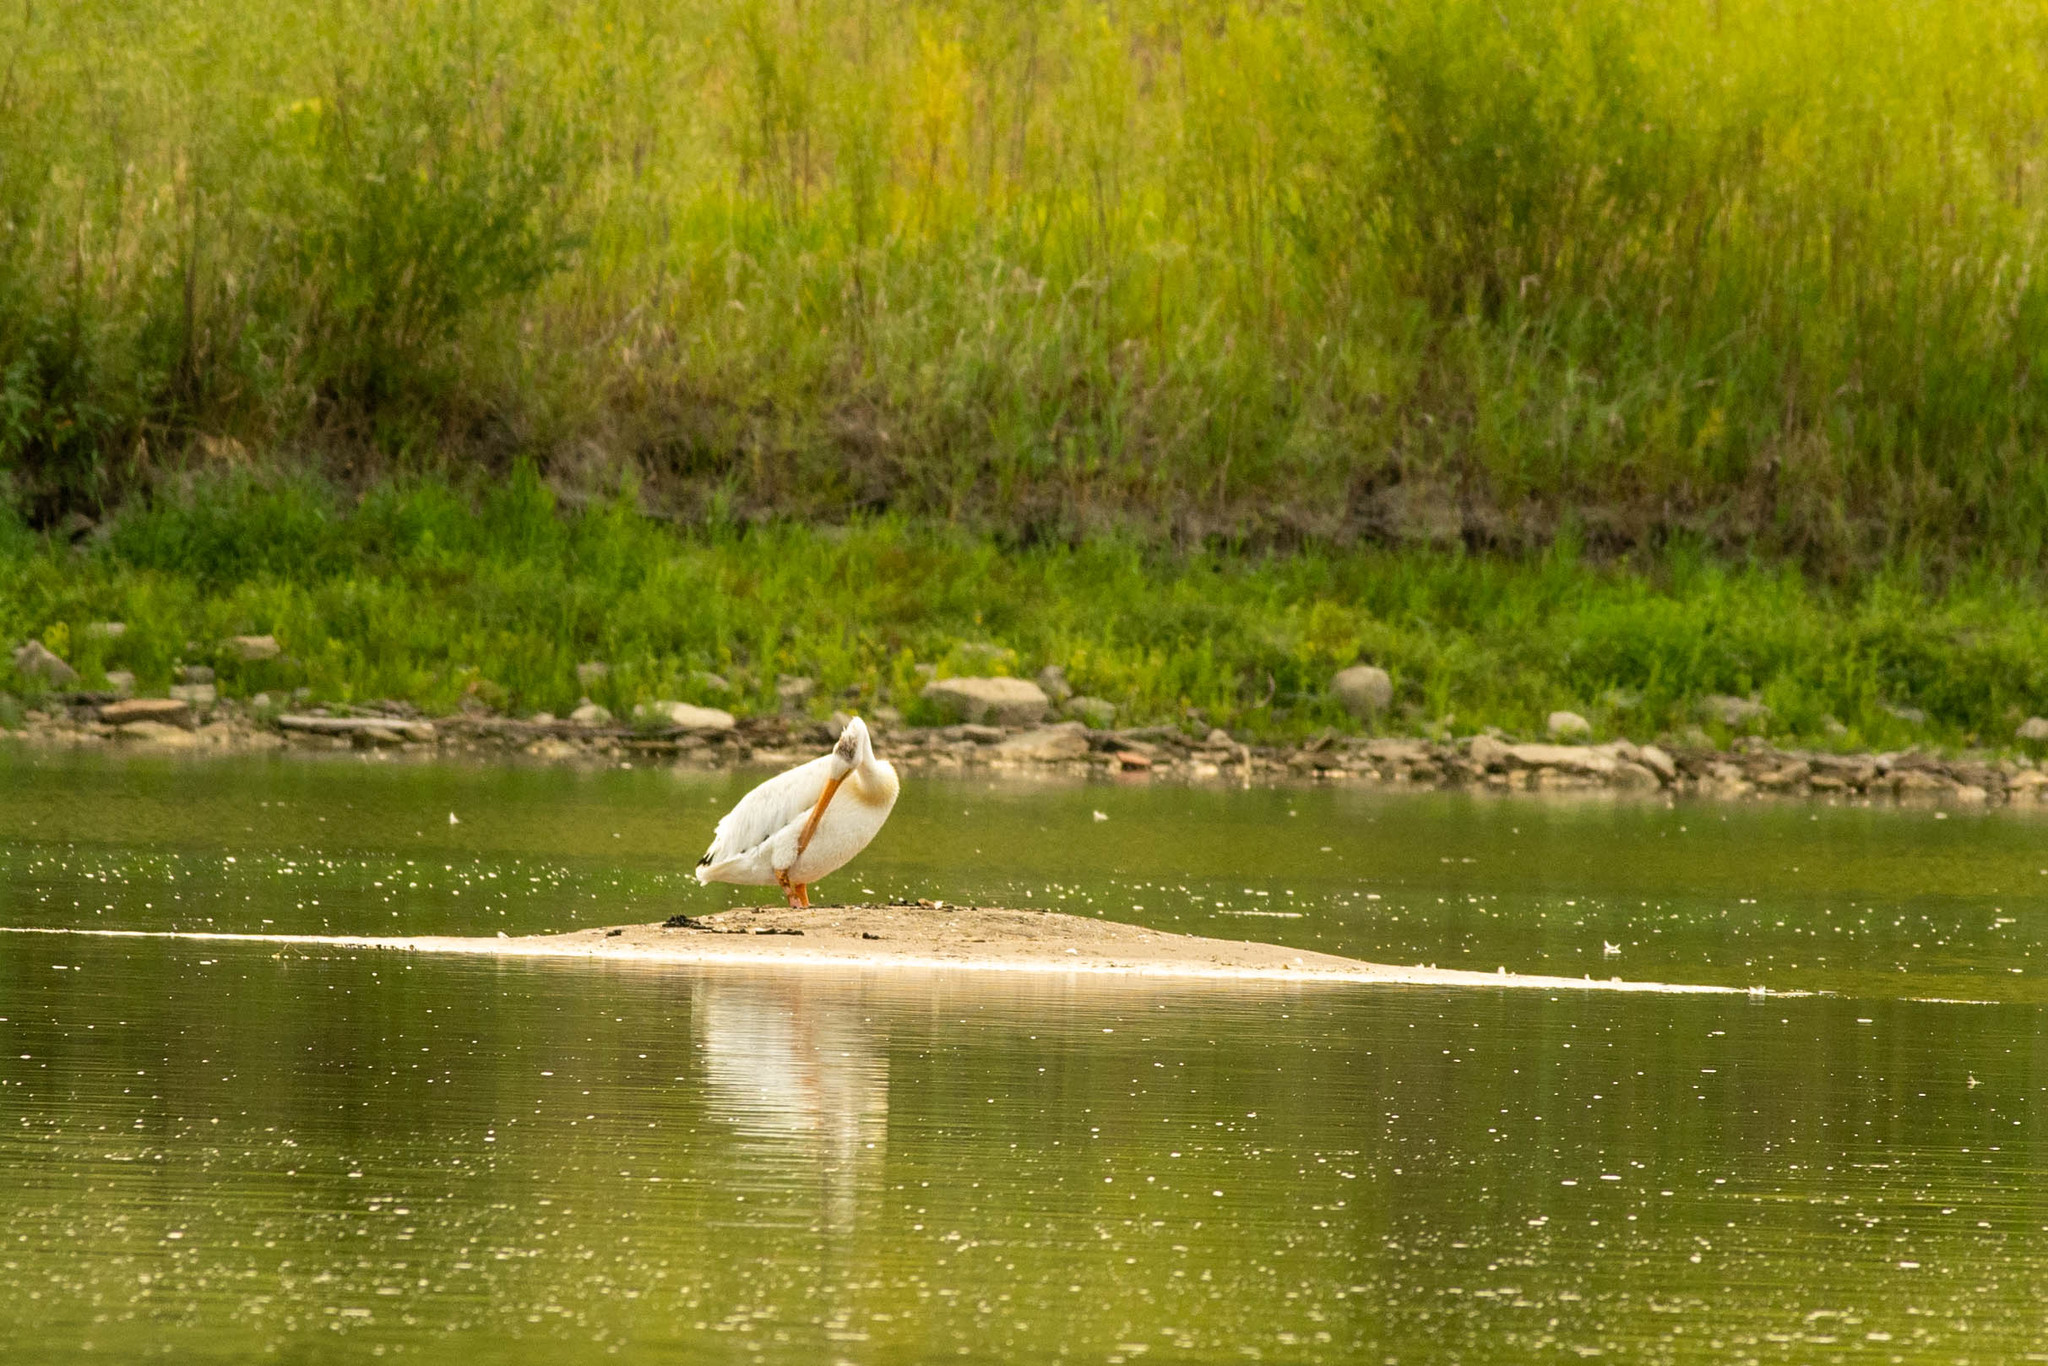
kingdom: Animalia
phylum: Chordata
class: Aves
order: Pelecaniformes
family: Pelecanidae
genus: Pelecanus
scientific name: Pelecanus erythrorhynchos
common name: American white pelican
